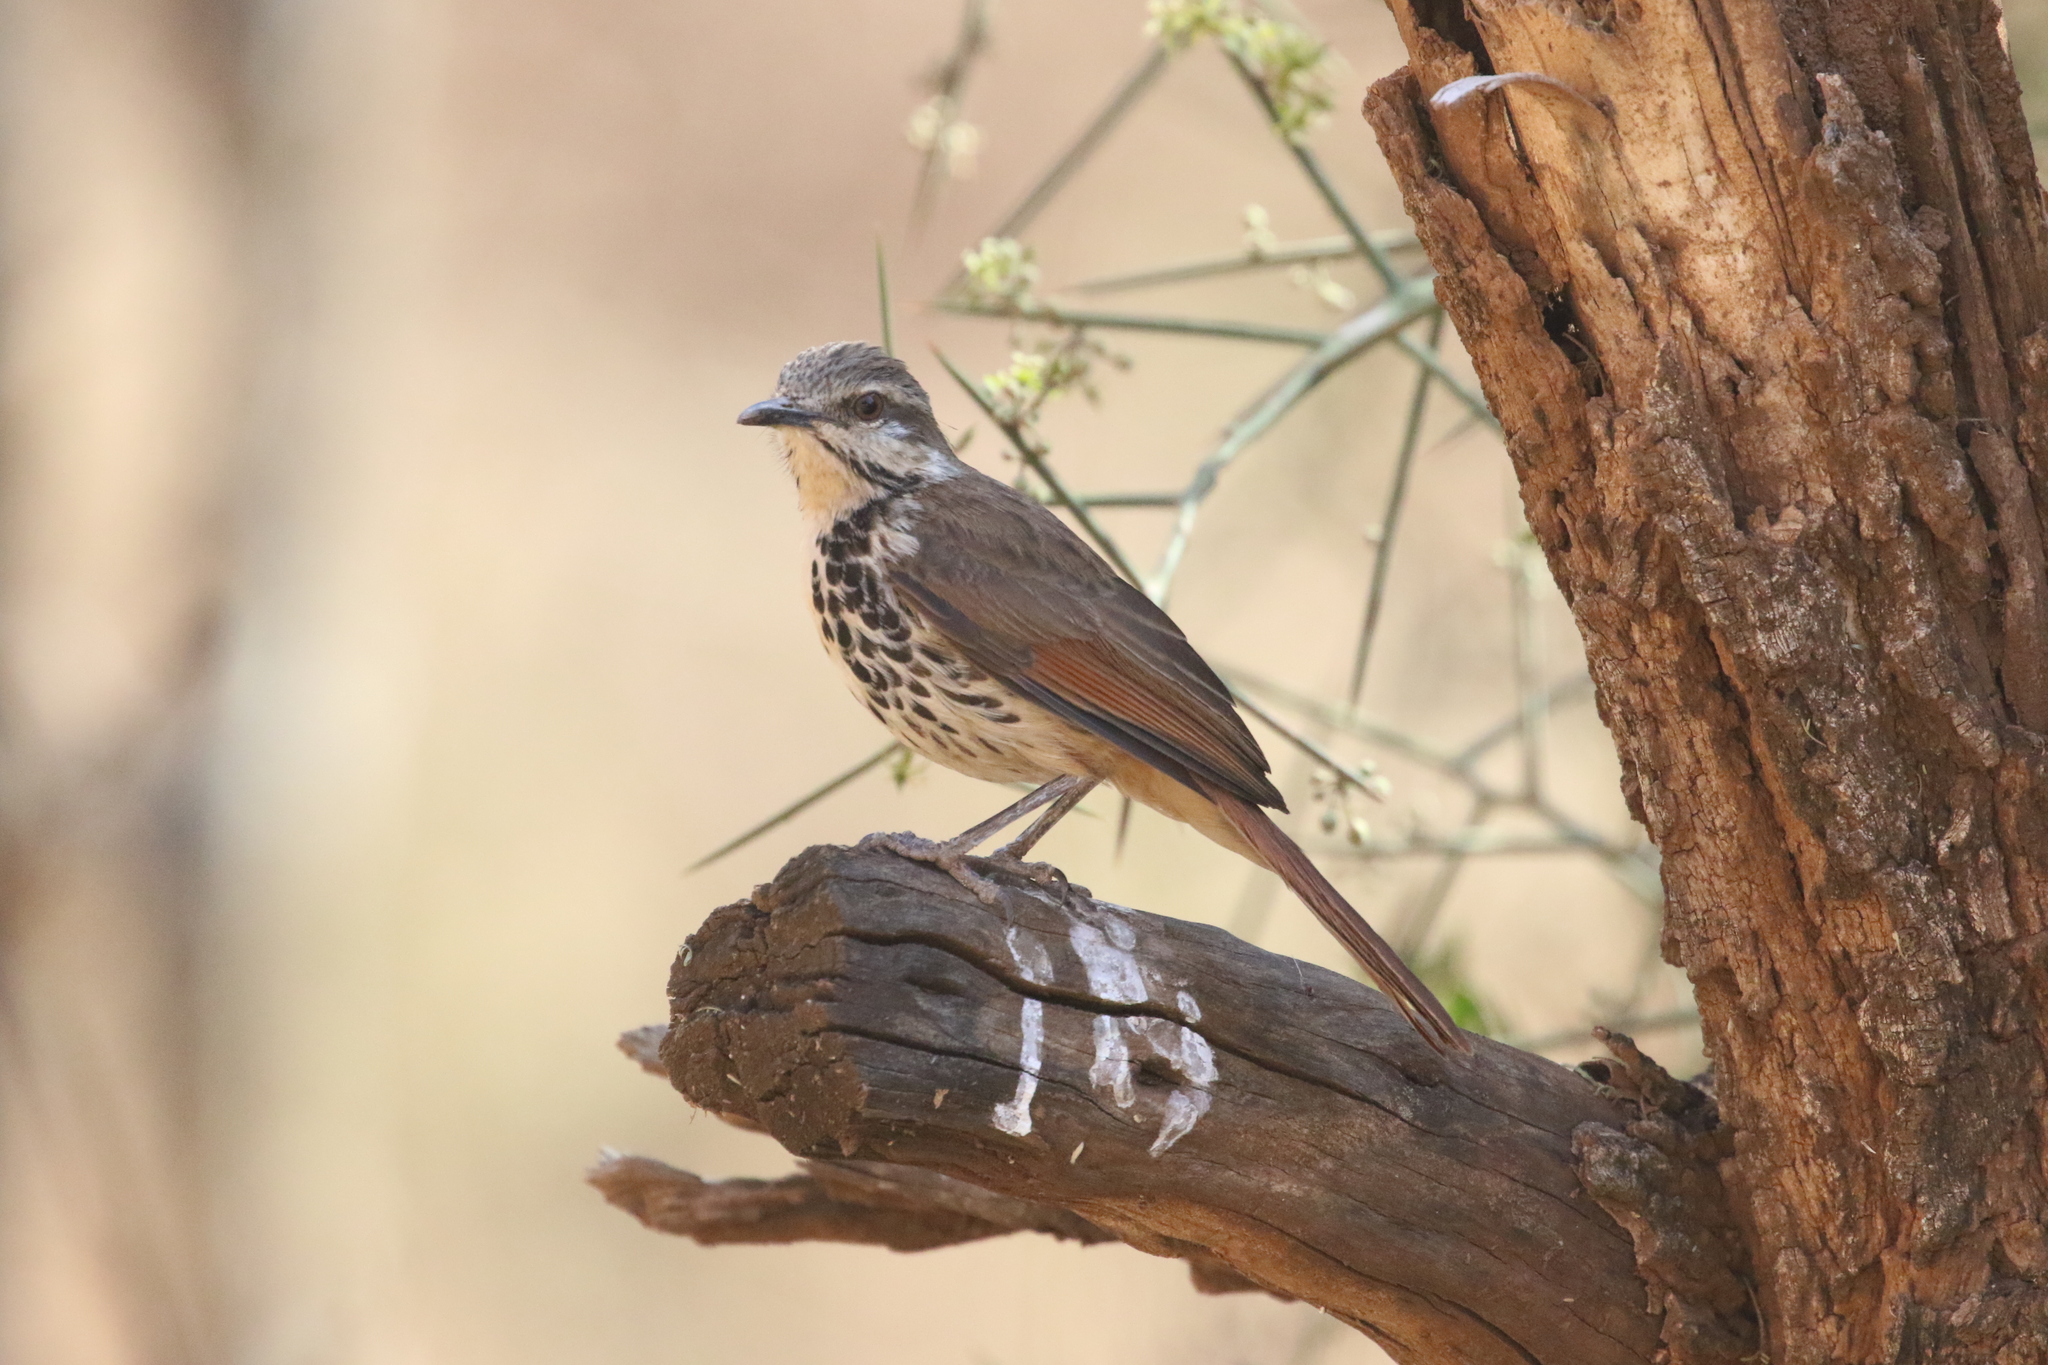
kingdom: Animalia
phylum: Chordata
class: Aves
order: Passeriformes
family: Muscicapidae
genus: Cichladusa
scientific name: Cichladusa guttata
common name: Spotted palm thrush
